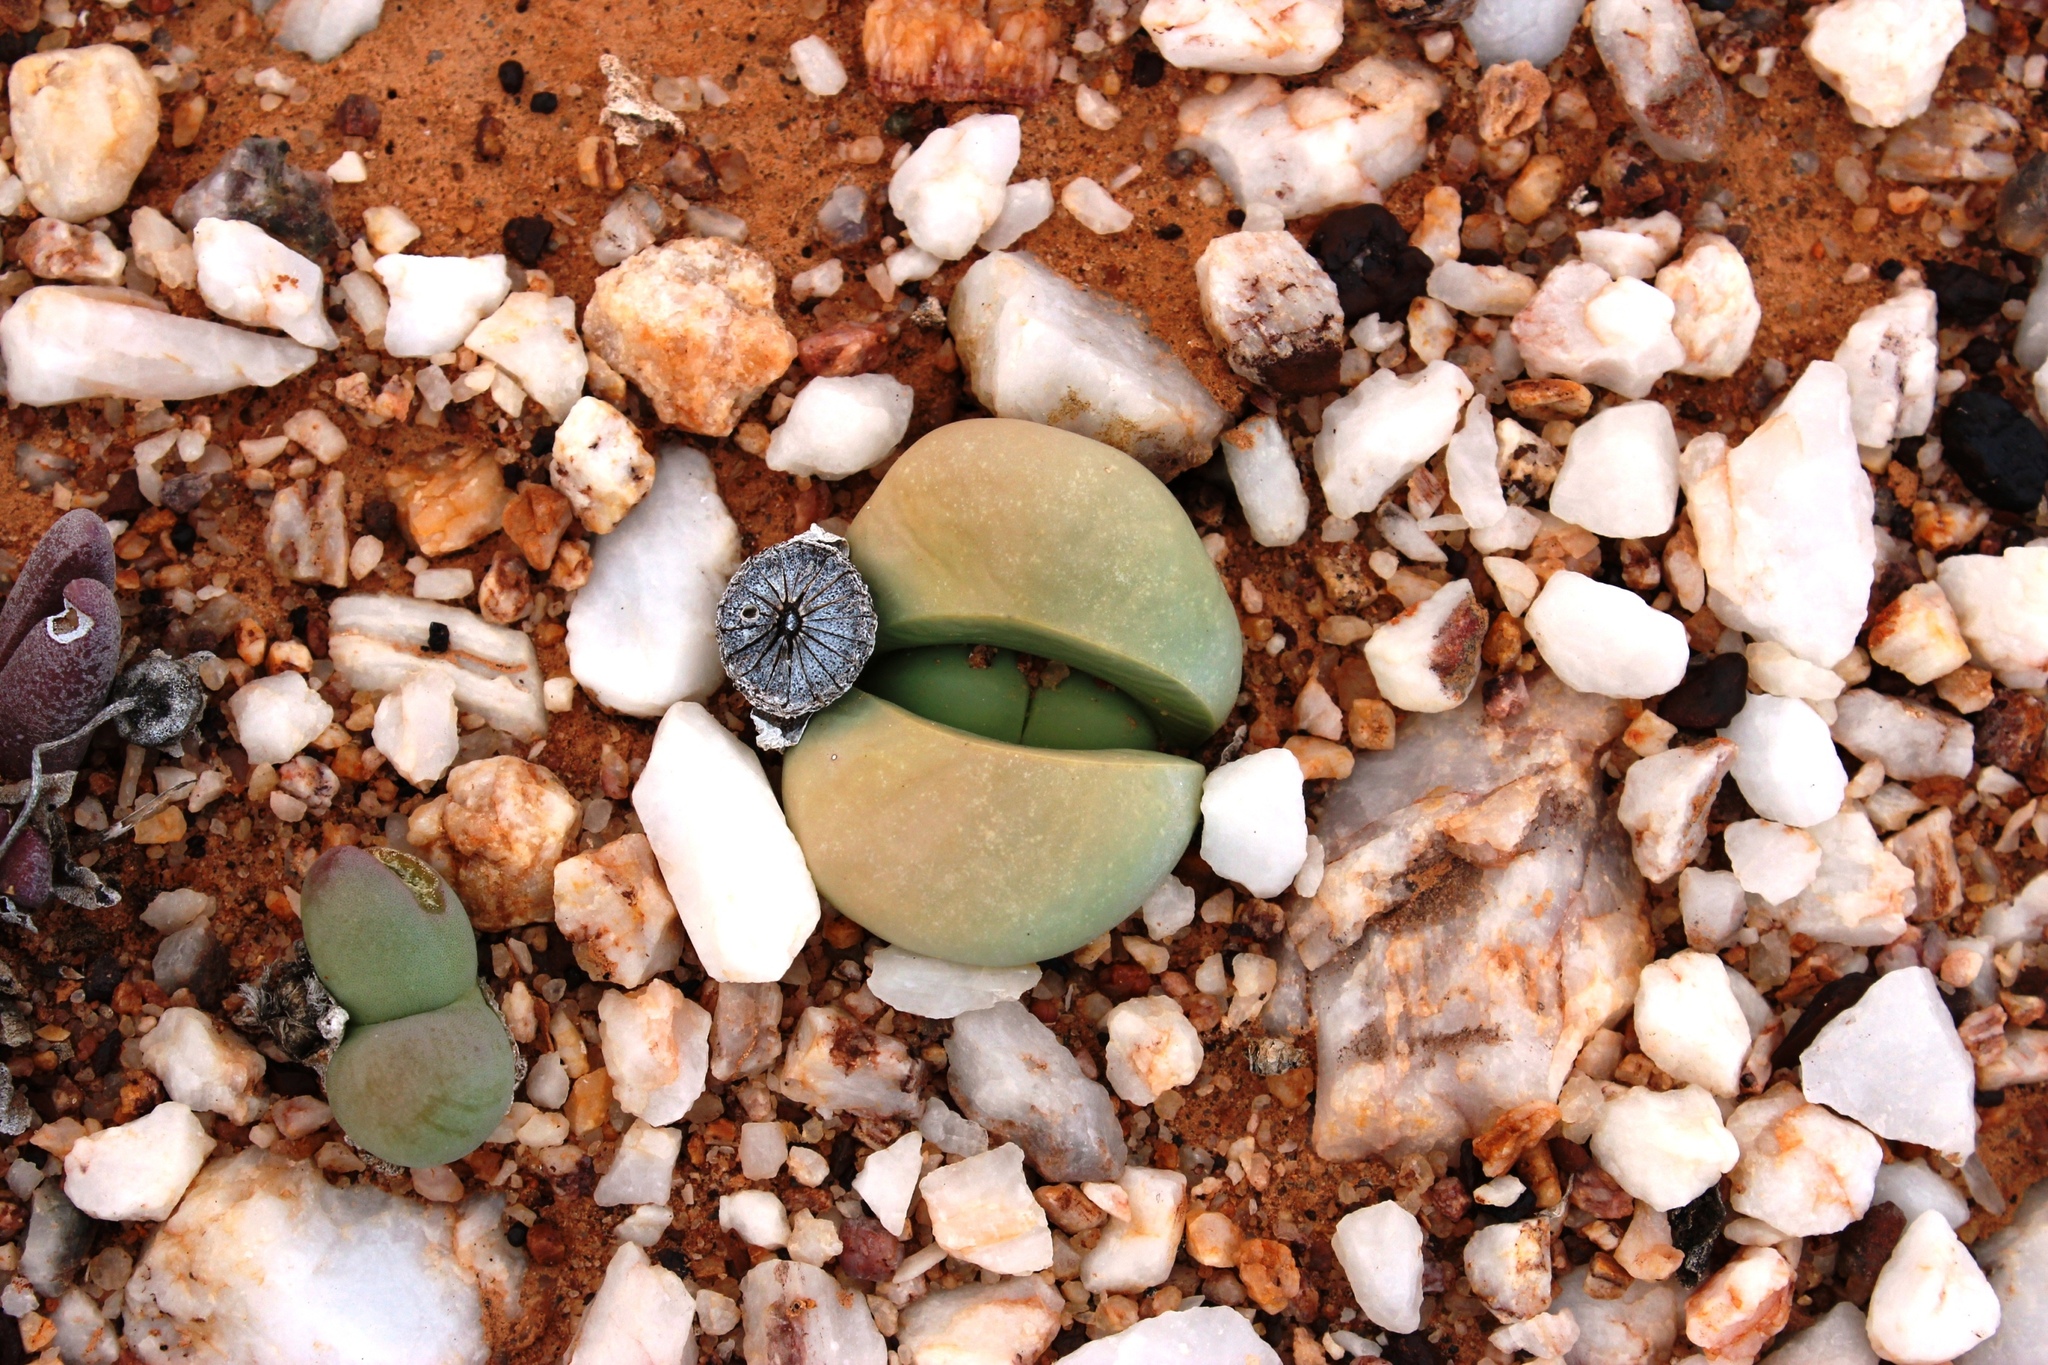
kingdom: Plantae
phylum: Tracheophyta
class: Magnoliopsida
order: Caryophyllales
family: Aizoaceae
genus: Argyroderma
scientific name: Argyroderma delaetii
